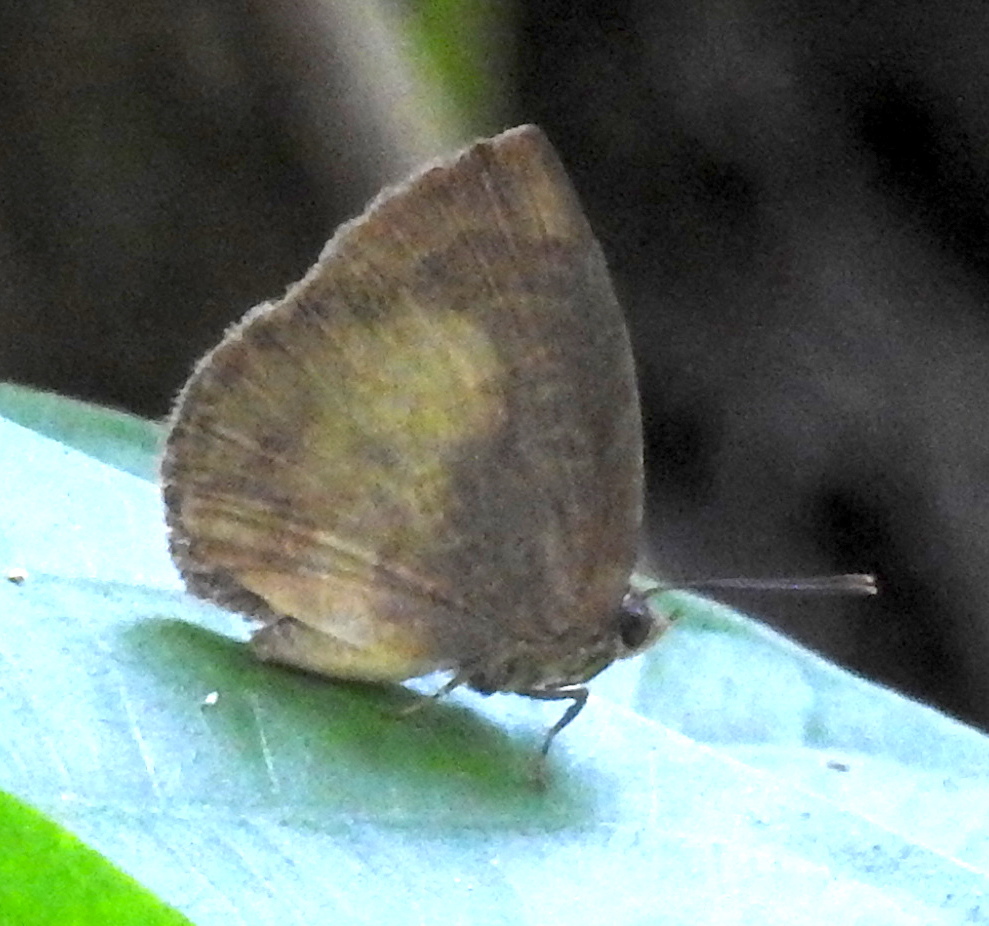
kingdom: Animalia
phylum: Arthropoda
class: Insecta
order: Lepidoptera
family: Lycaenidae
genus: Arhopala
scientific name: Arhopala perimuta
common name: Yellowdisc oakblue
